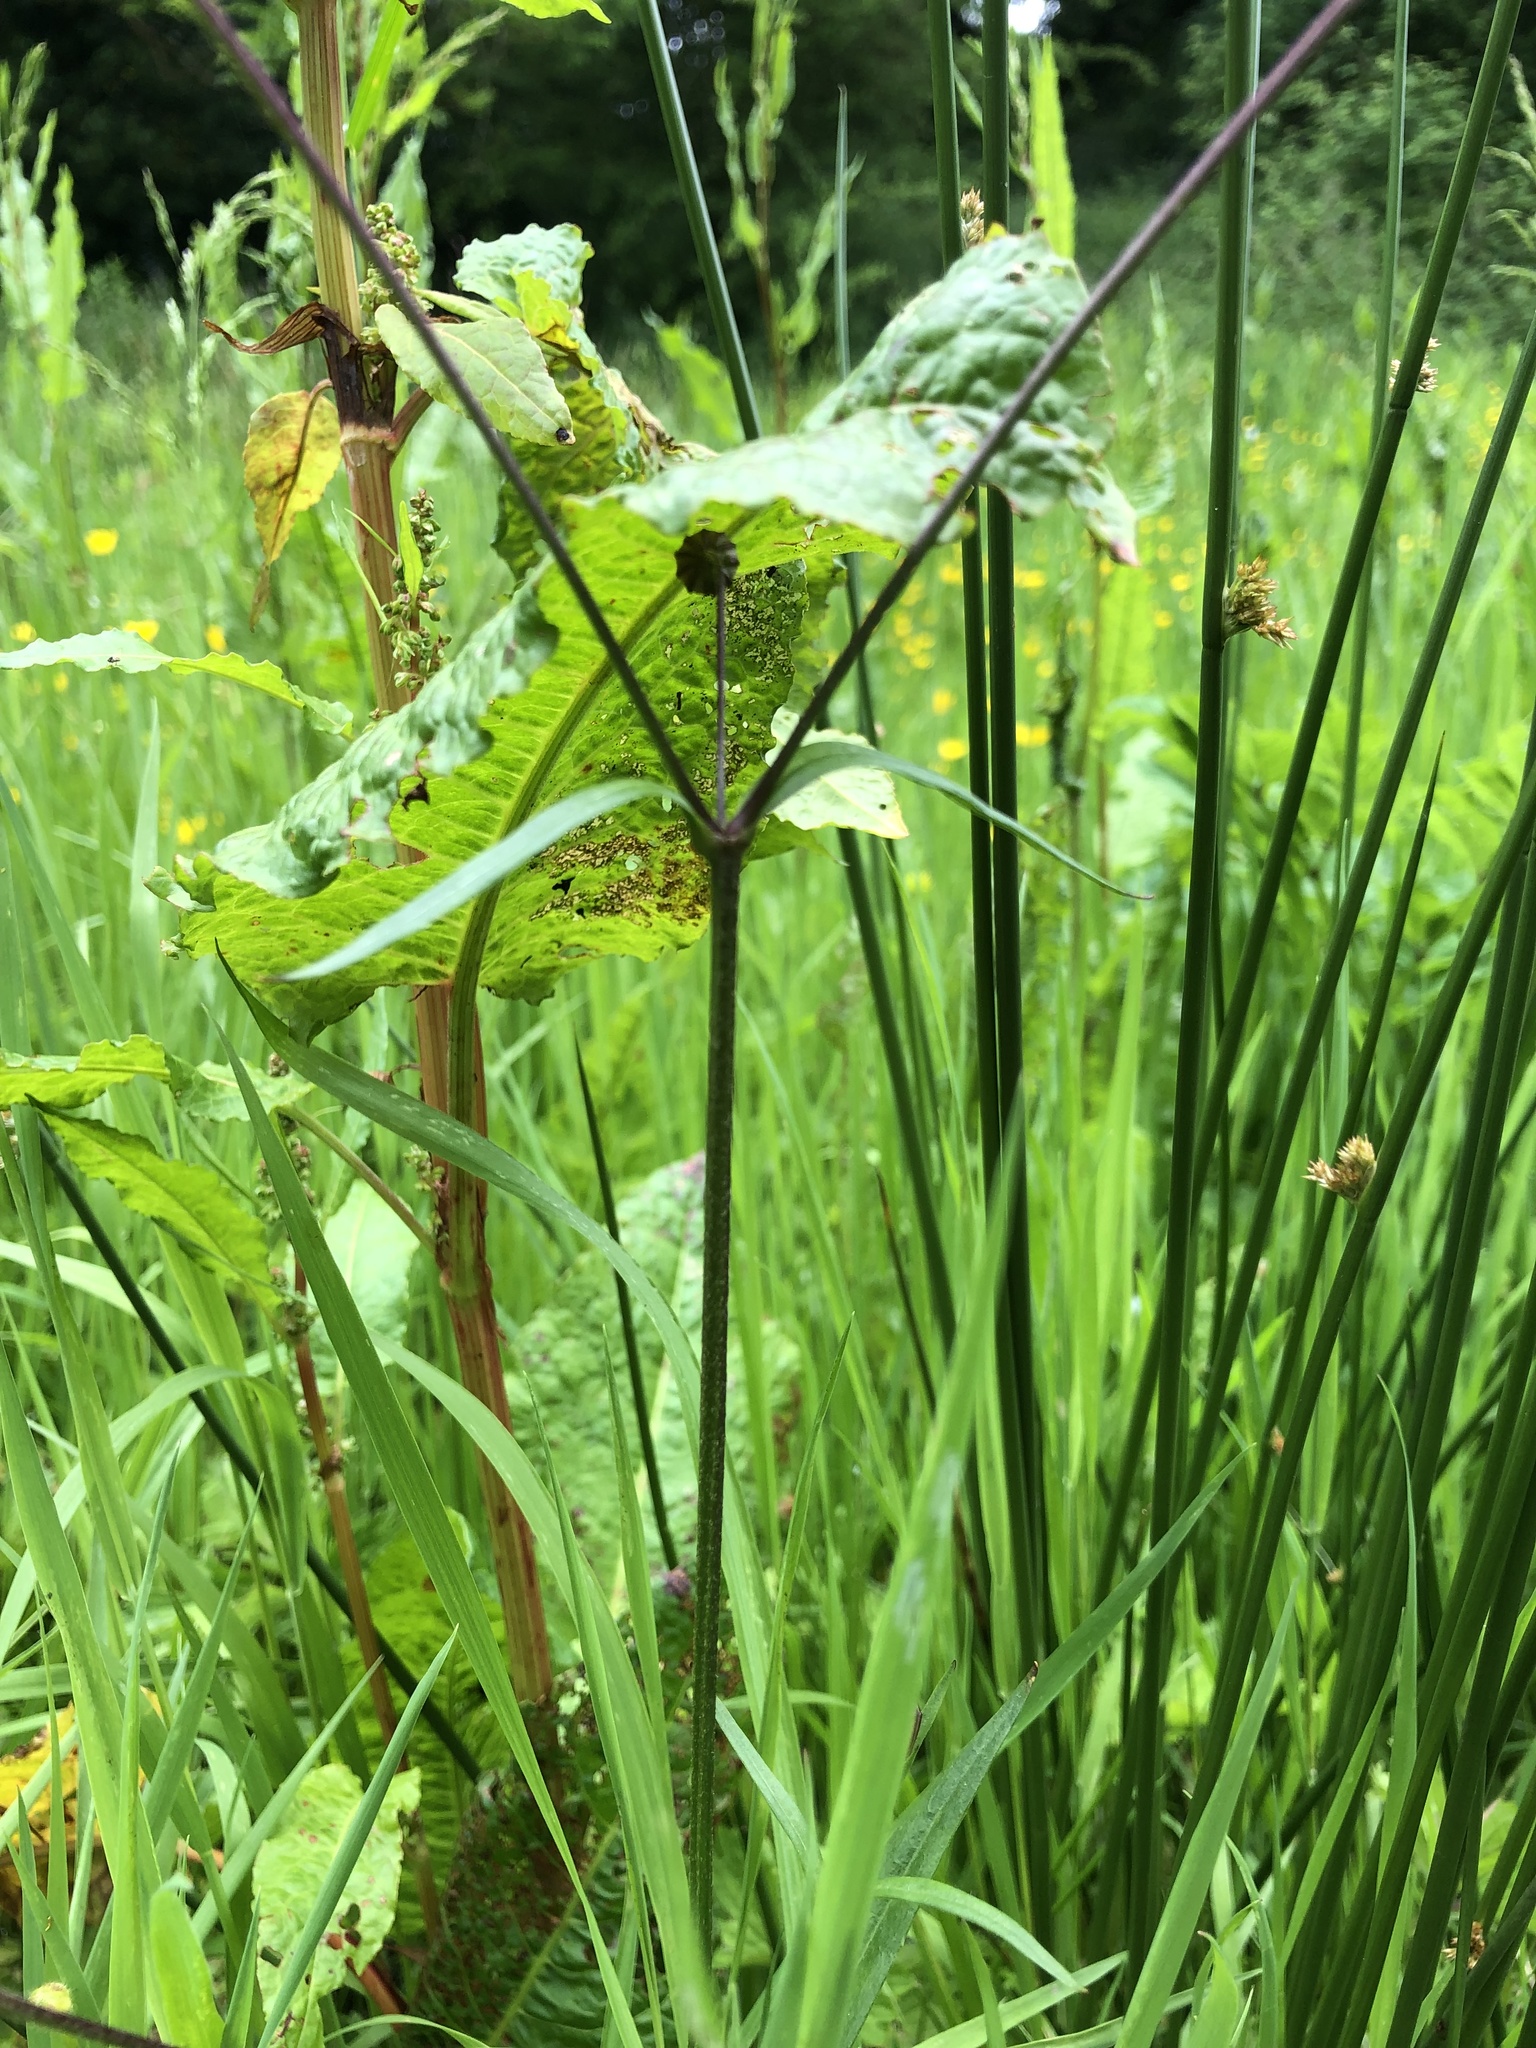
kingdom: Plantae
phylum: Tracheophyta
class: Magnoliopsida
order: Caryophyllales
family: Caryophyllaceae
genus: Silene
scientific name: Silene flos-cuculi
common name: Ragged-robin
